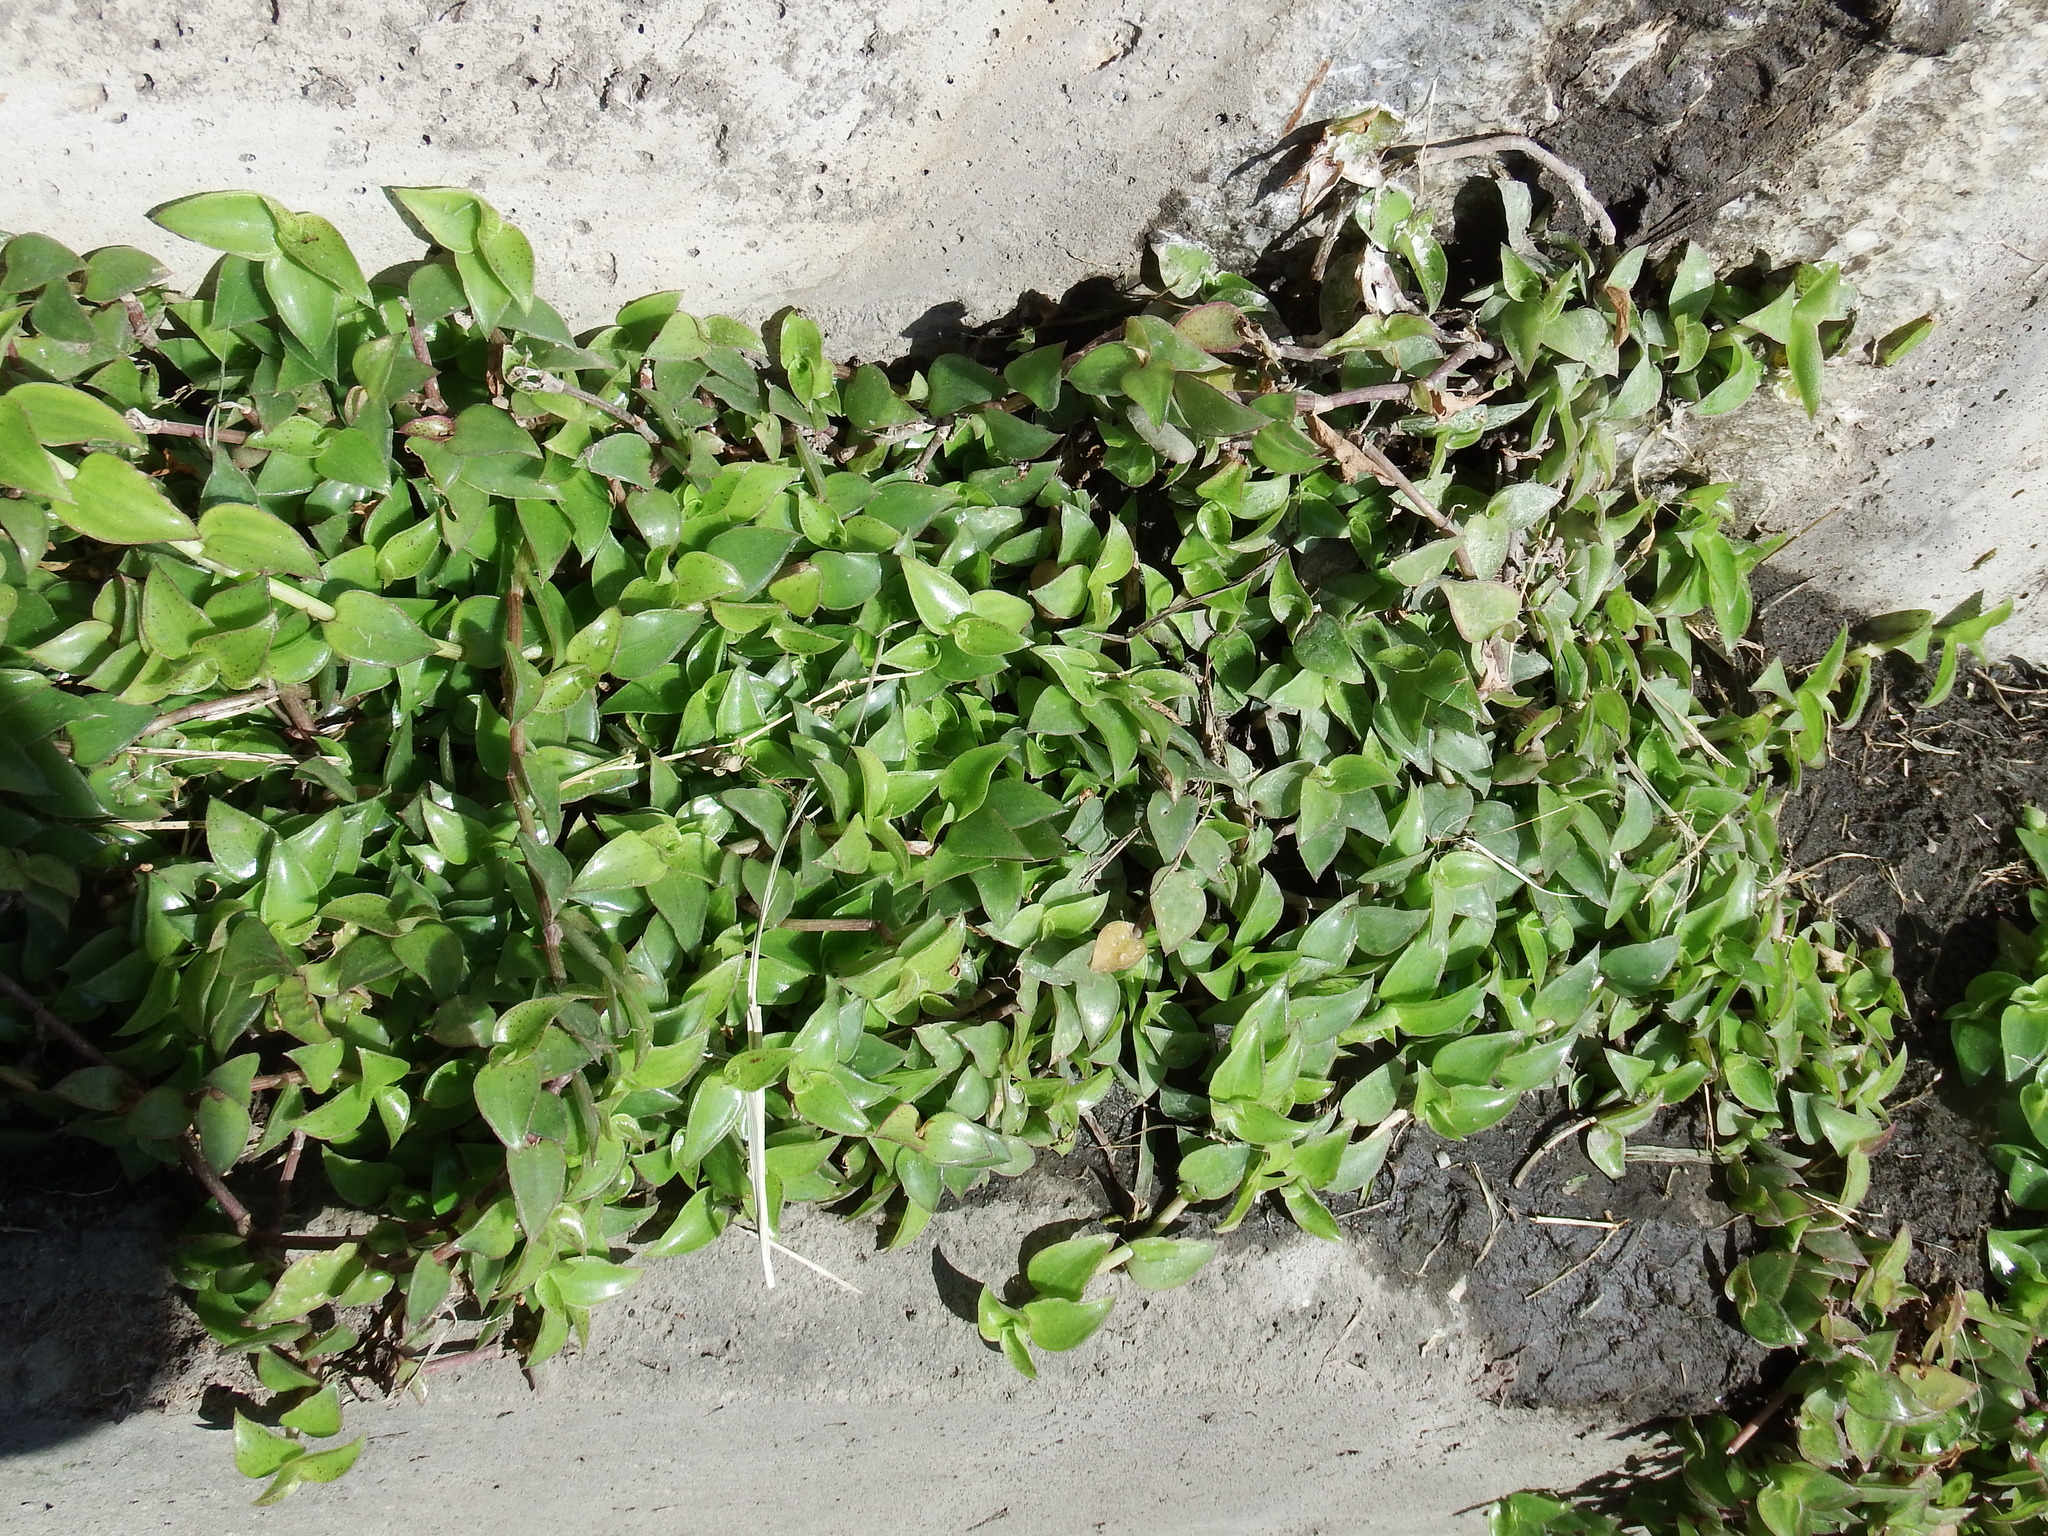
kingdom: Plantae
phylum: Tracheophyta
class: Liliopsida
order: Commelinales
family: Commelinaceae
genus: Callisia
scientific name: Callisia repens
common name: Creeping inchplant
